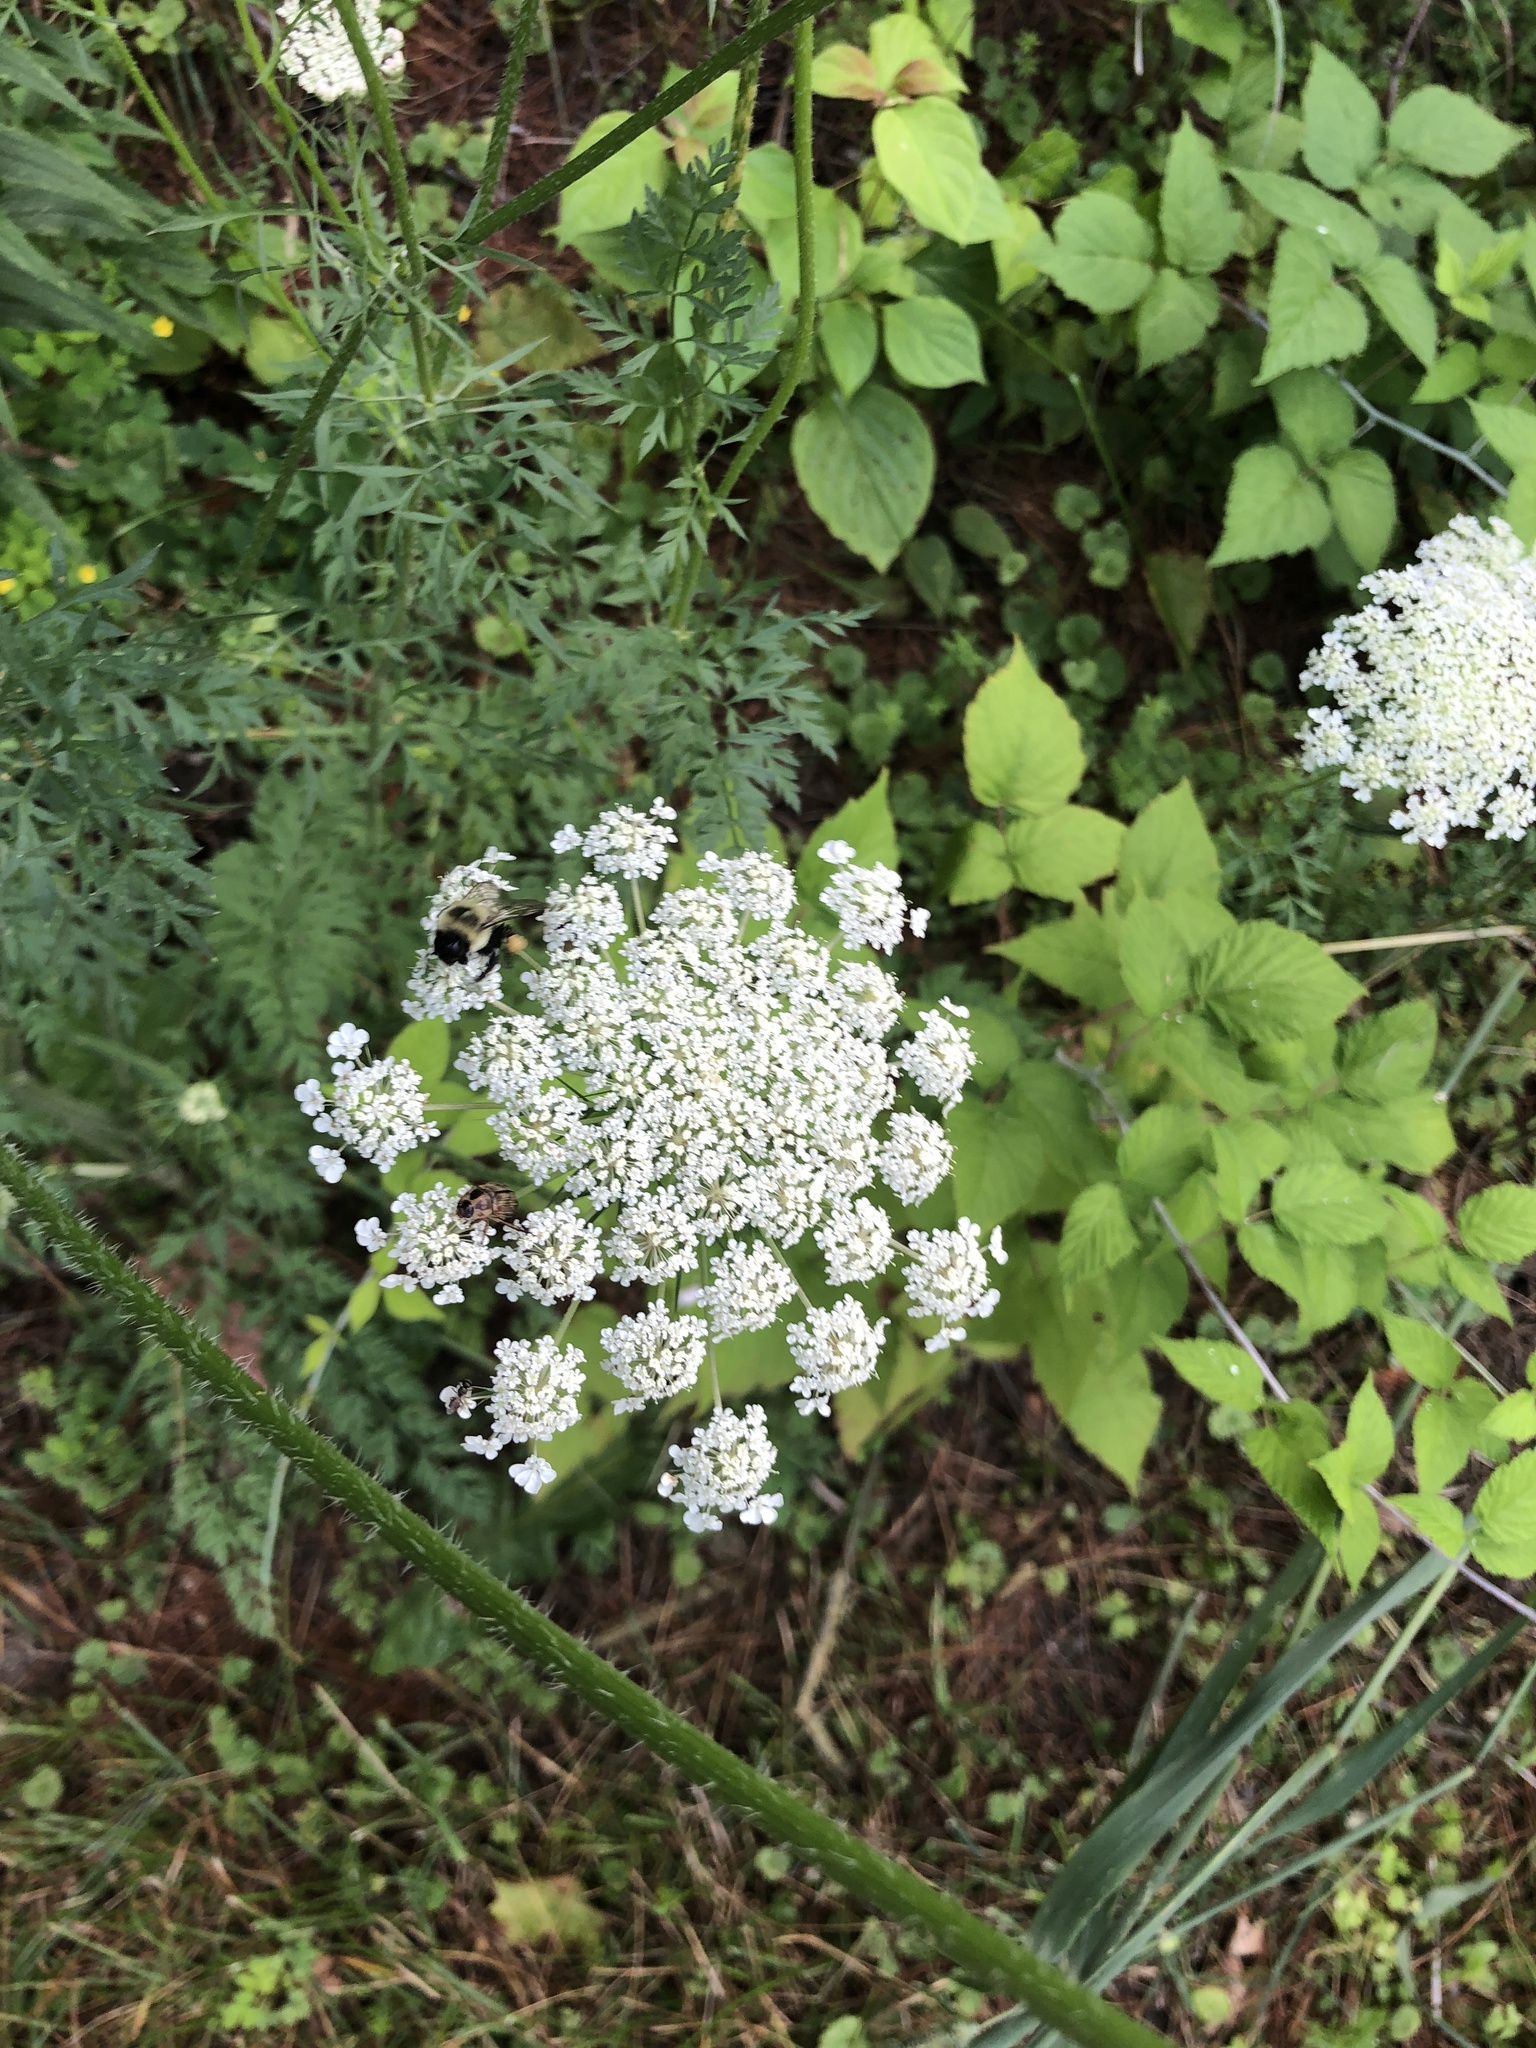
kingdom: Plantae
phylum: Tracheophyta
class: Magnoliopsida
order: Apiales
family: Apiaceae
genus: Daucus
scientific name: Daucus carota
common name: Wild carrot
